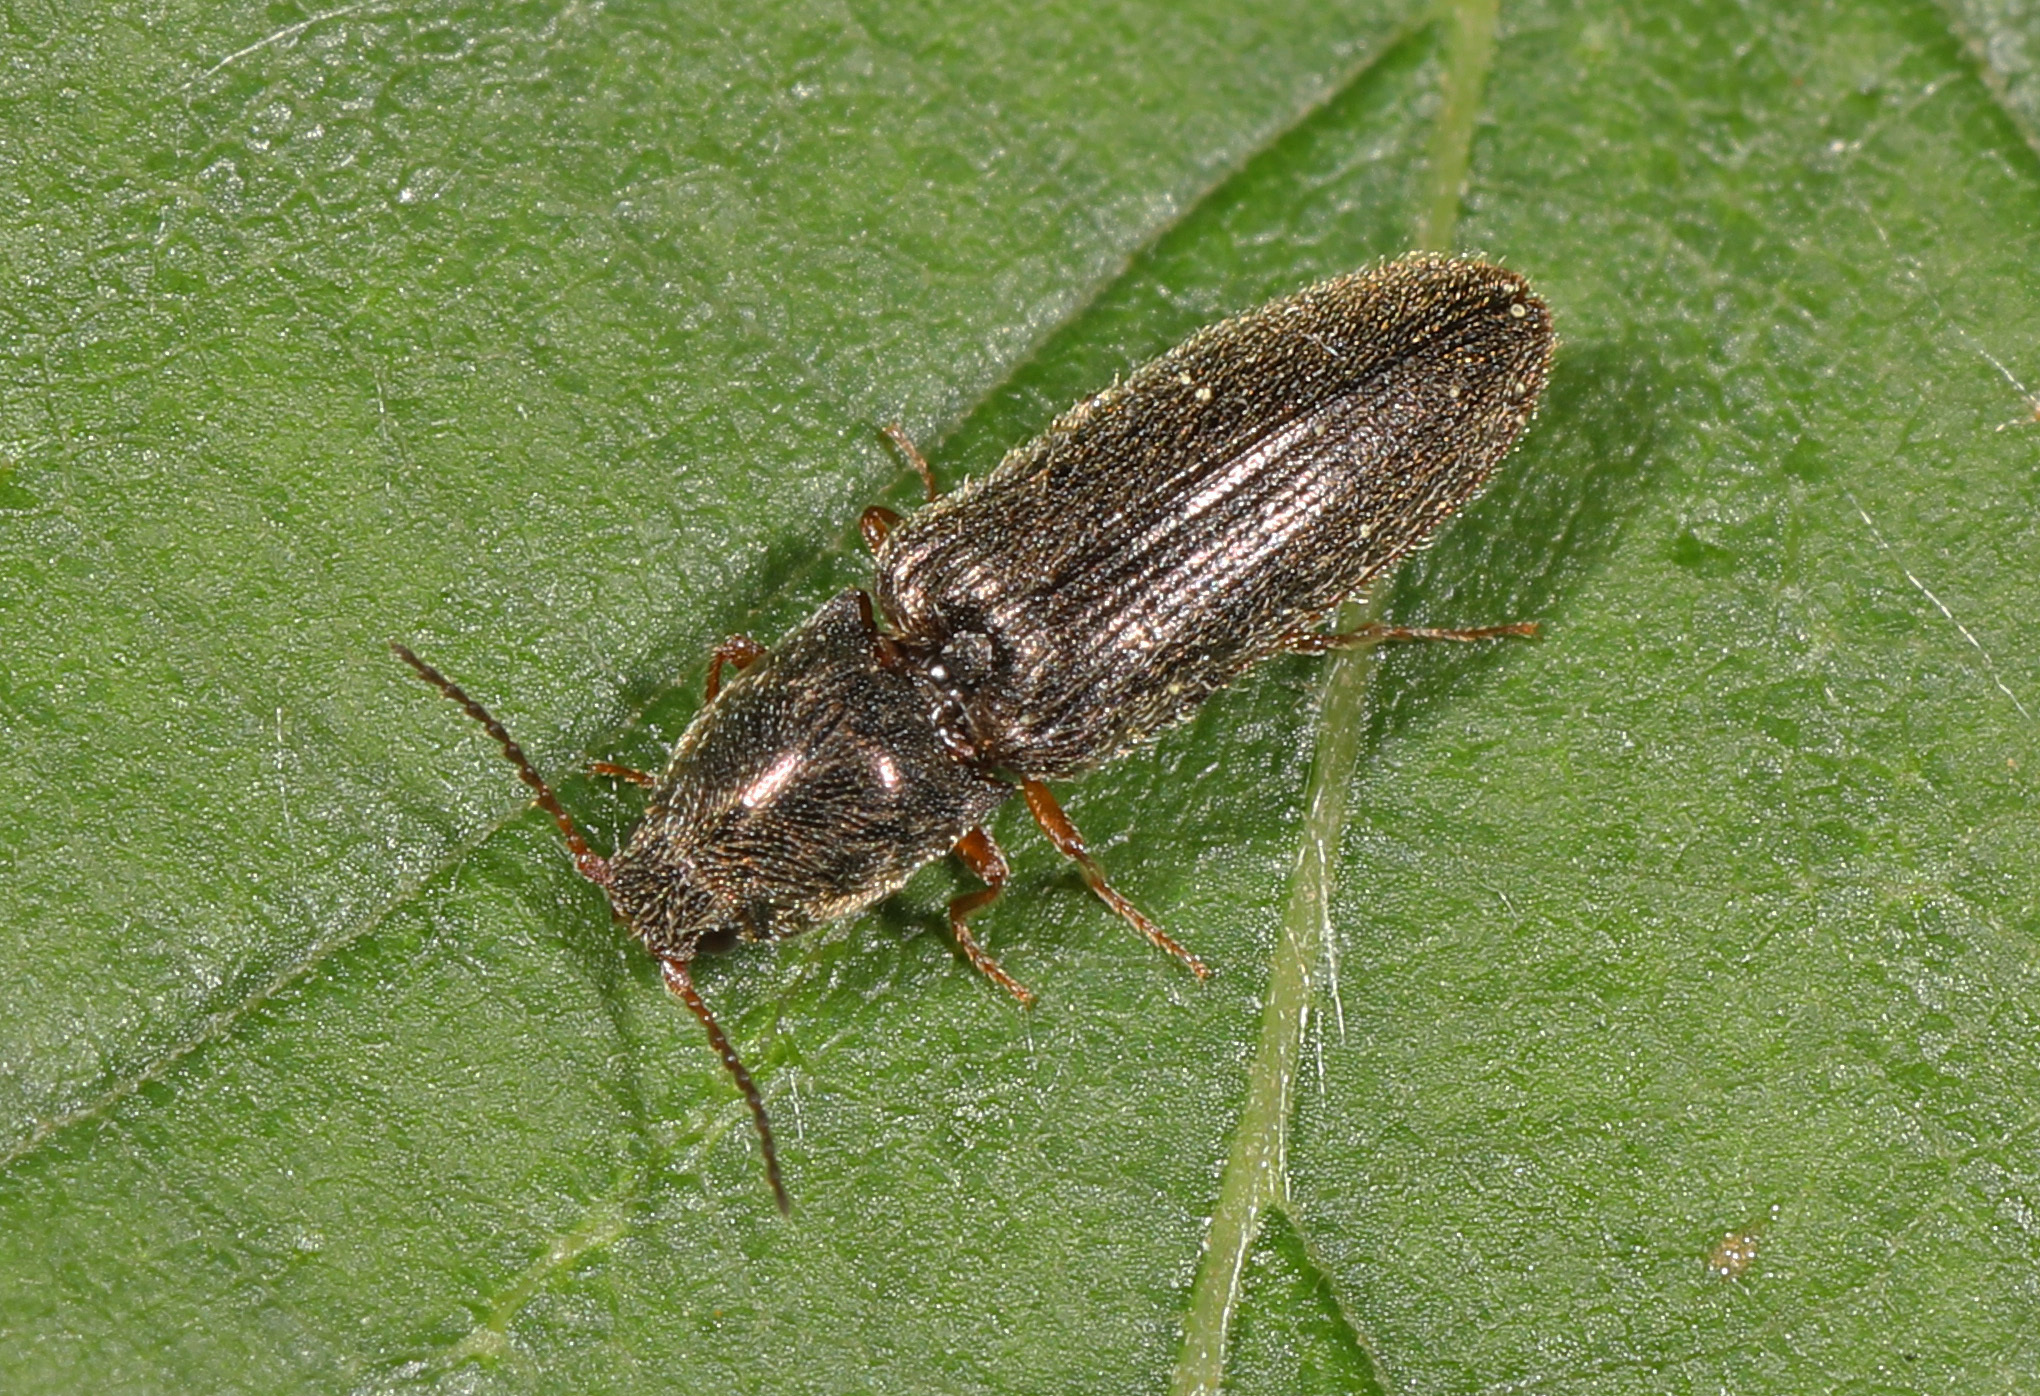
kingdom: Animalia
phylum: Arthropoda
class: Insecta
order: Coleoptera
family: Elateridae
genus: Limonius
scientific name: Limonius quercinus
